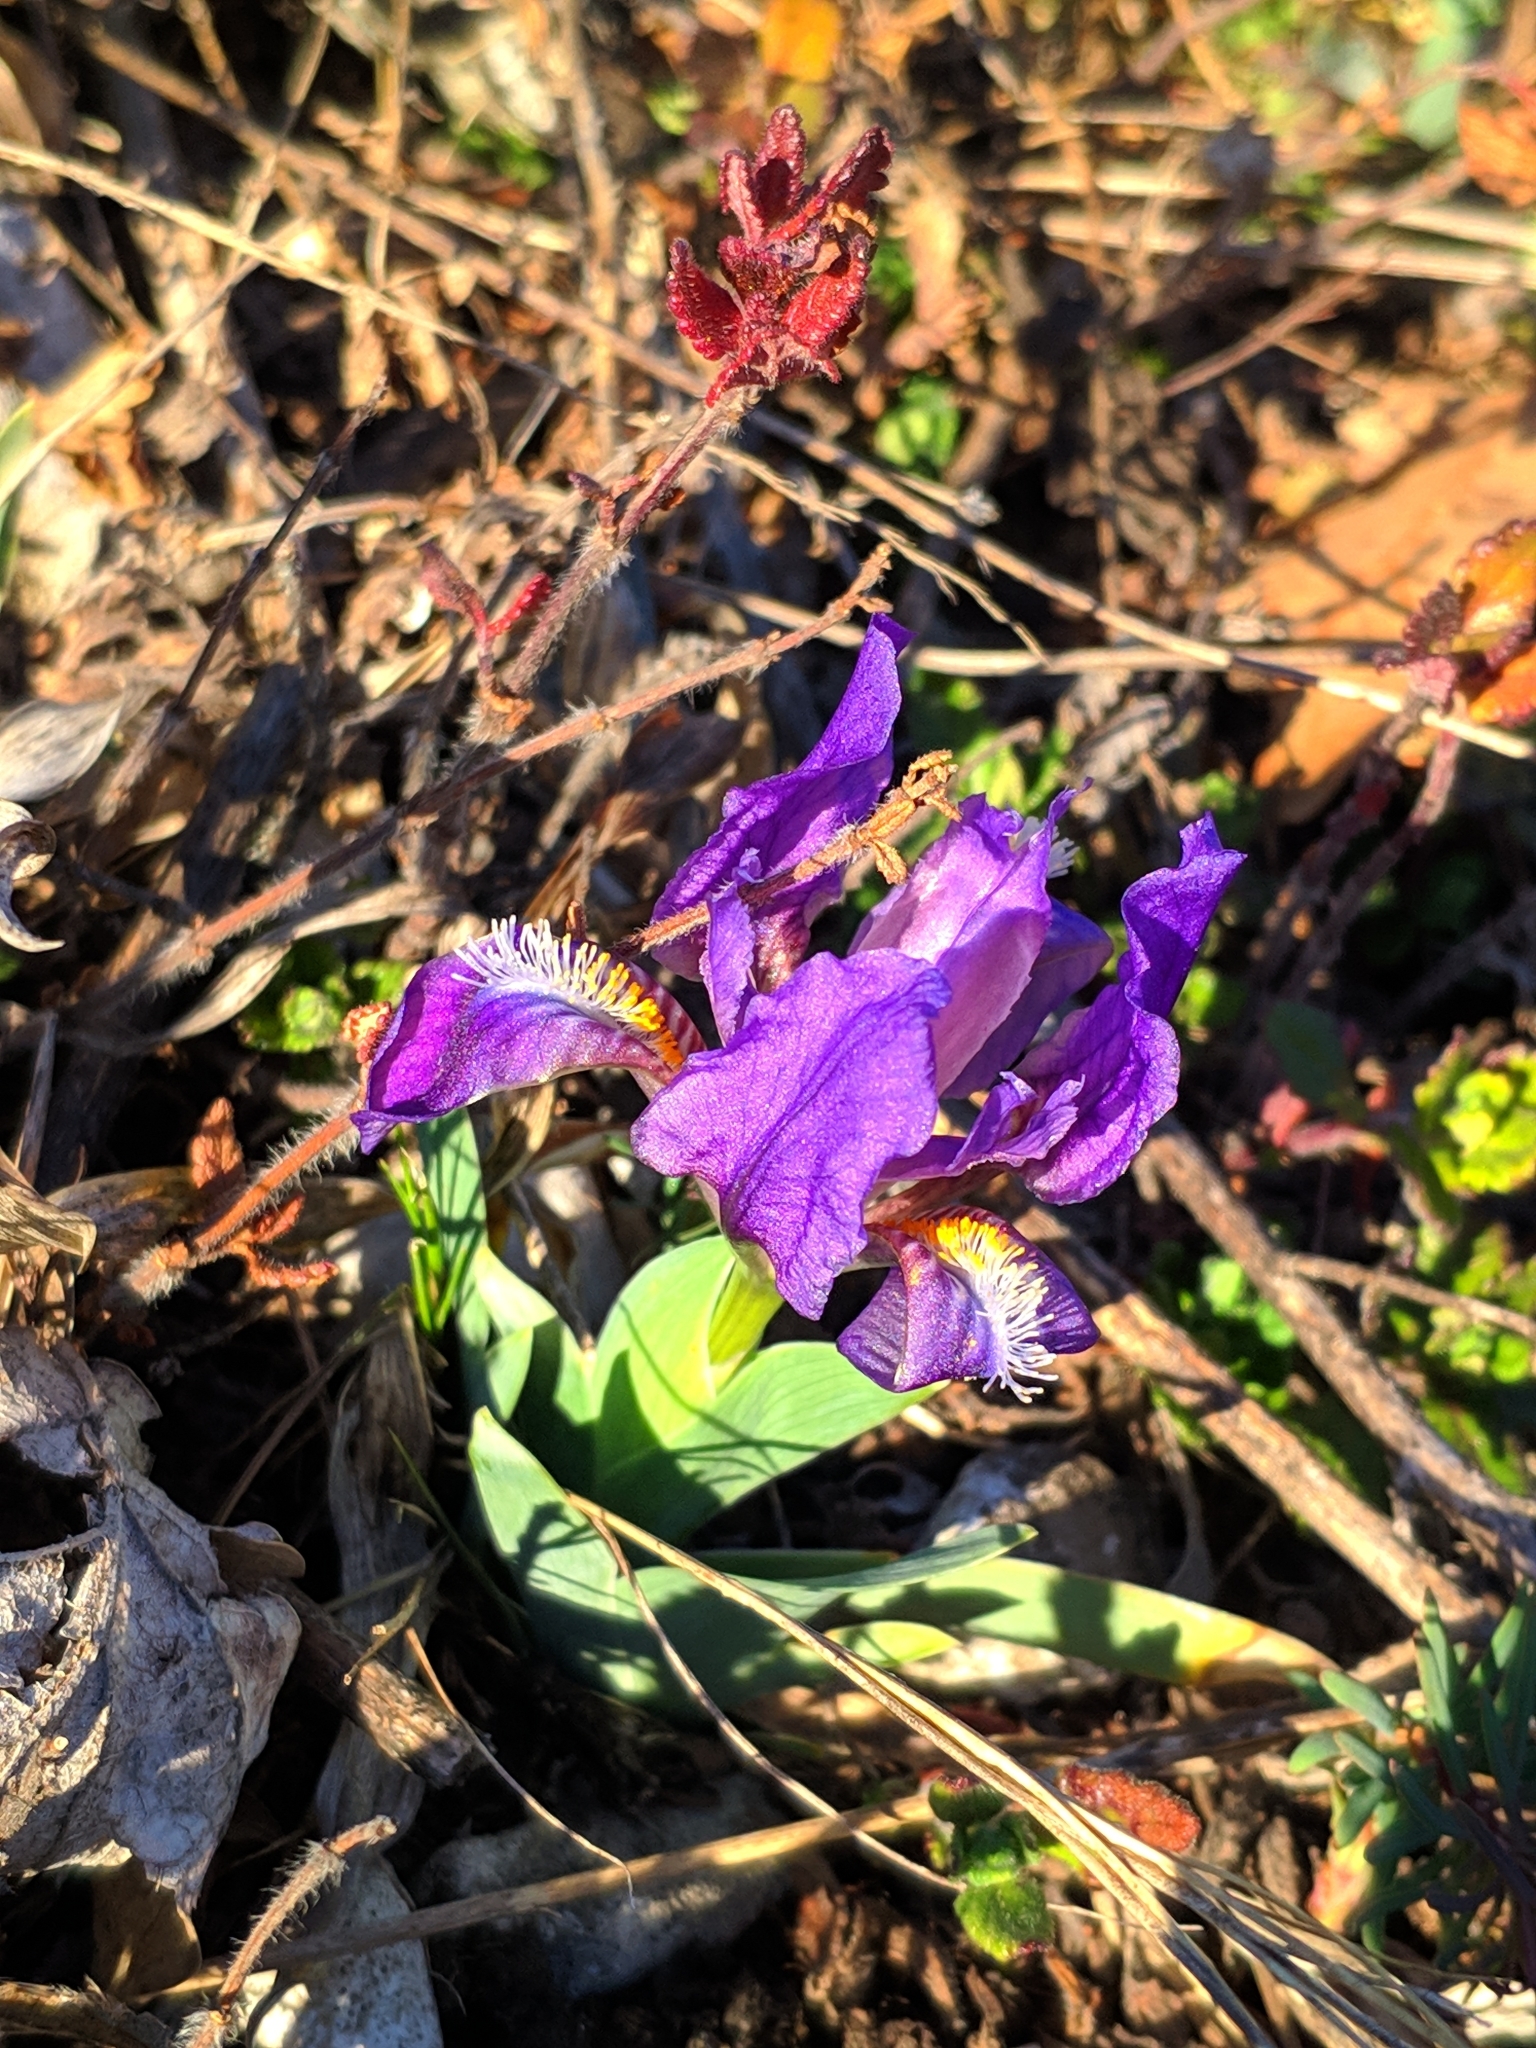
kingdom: Plantae
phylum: Tracheophyta
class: Liliopsida
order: Asparagales
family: Iridaceae
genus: Iris
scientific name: Iris pumila
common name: Dwarf iris
